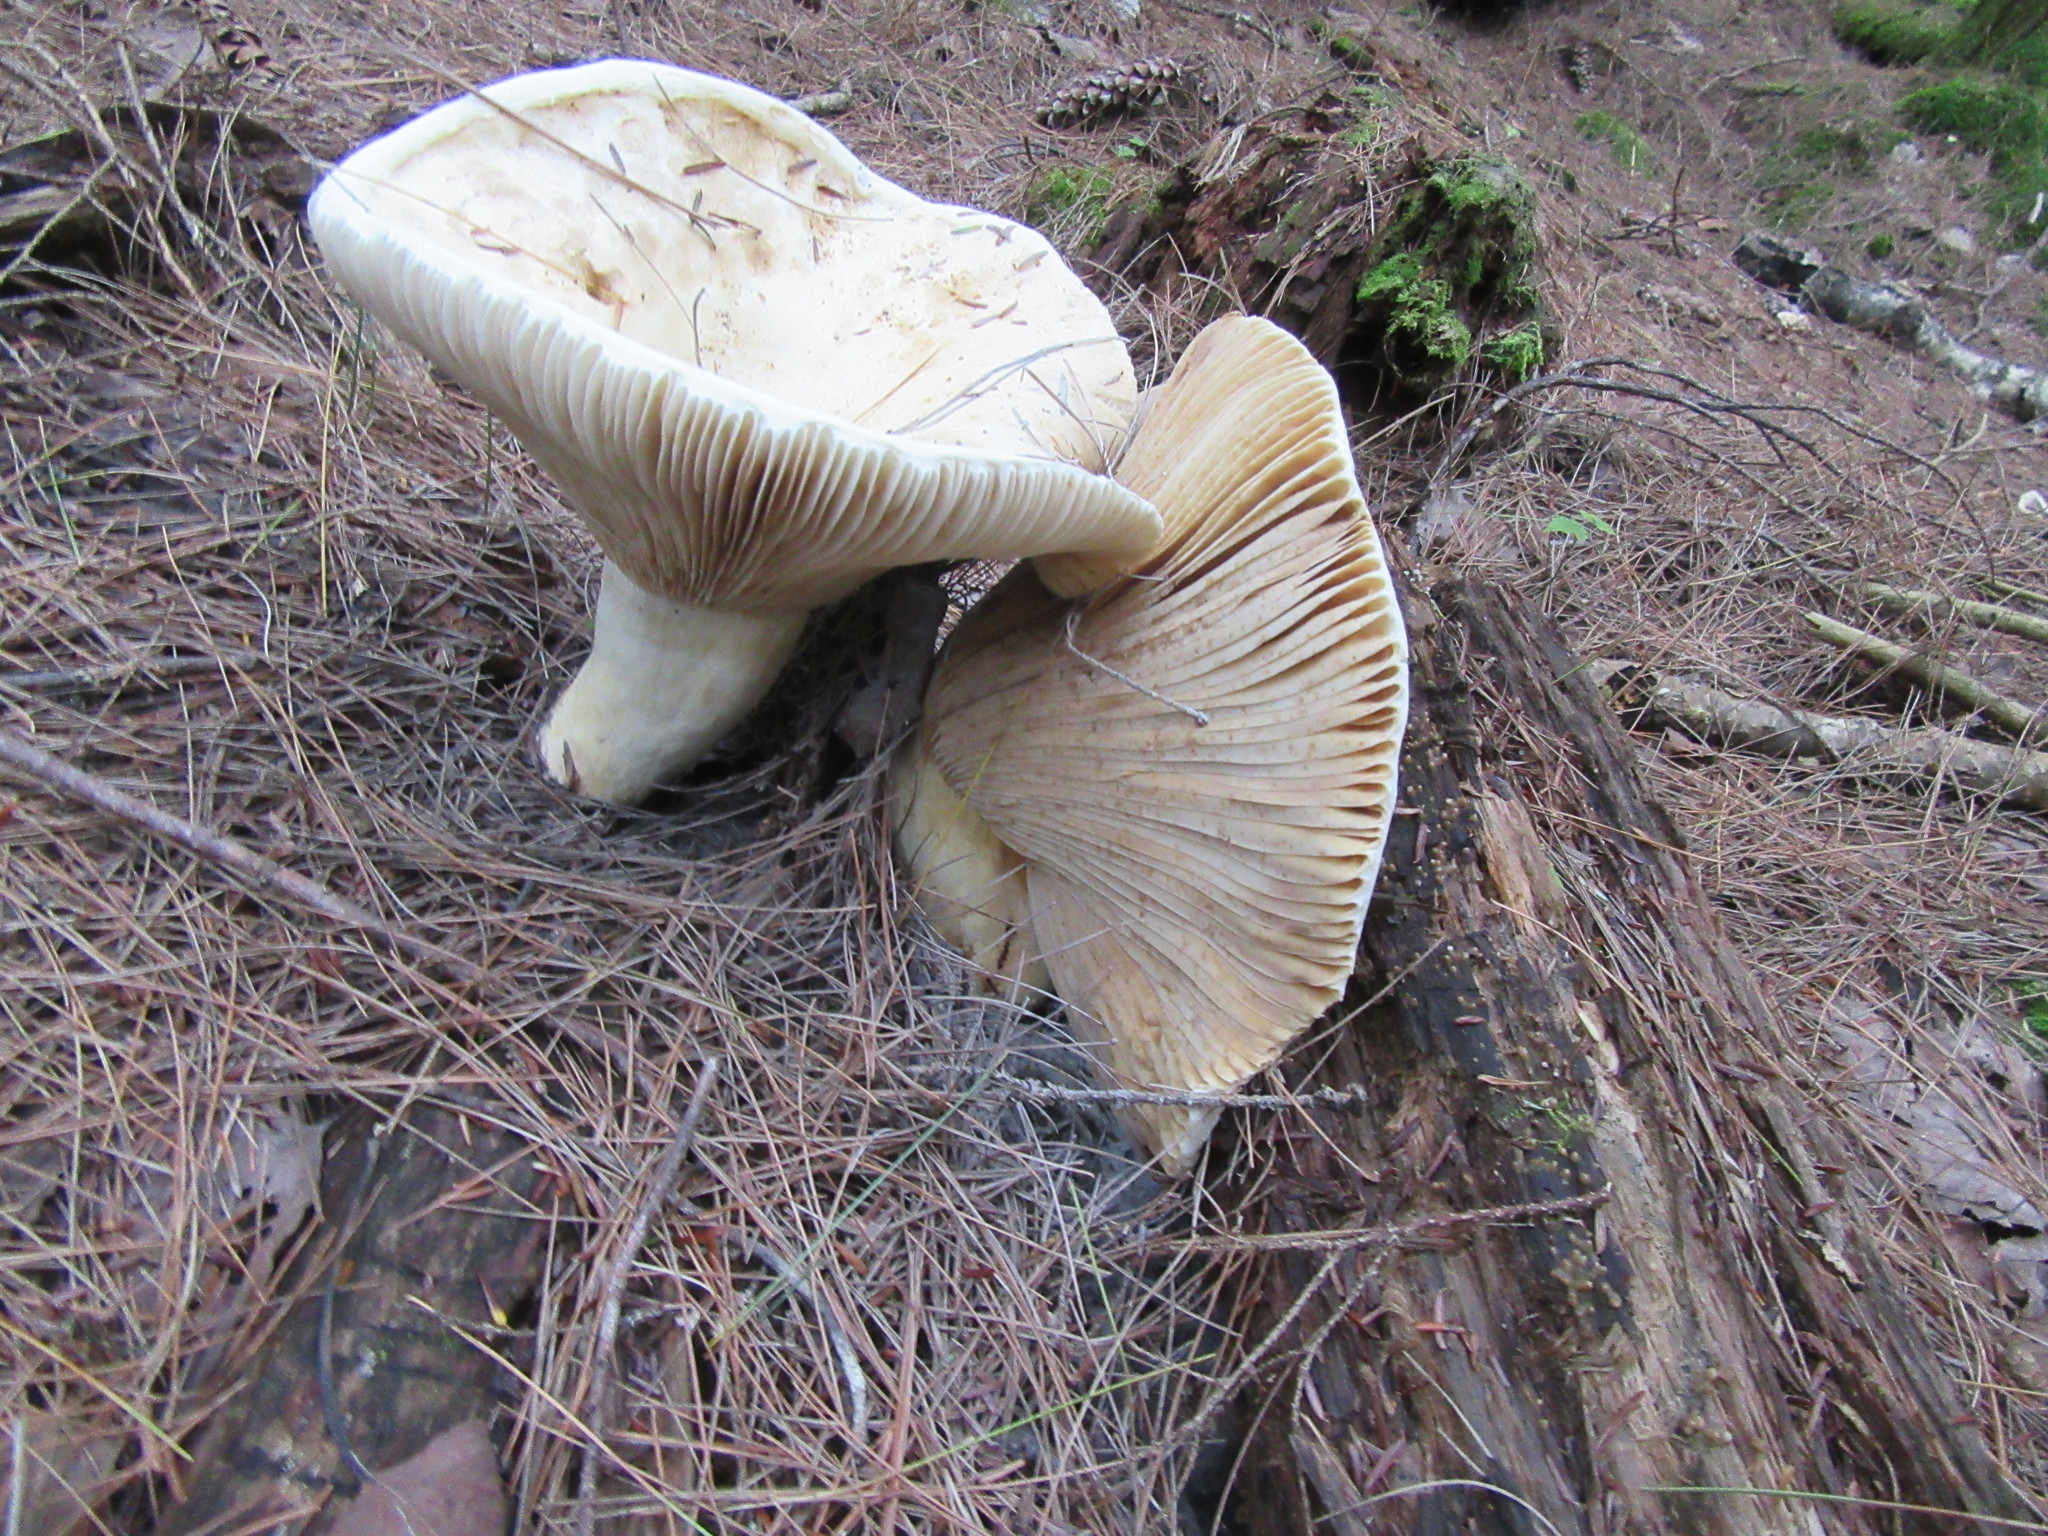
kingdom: Fungi
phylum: Basidiomycota
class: Agaricomycetes
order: Russulales
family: Russulaceae
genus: Russula
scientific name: Russula brevipes
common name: Short-stemmed russula
